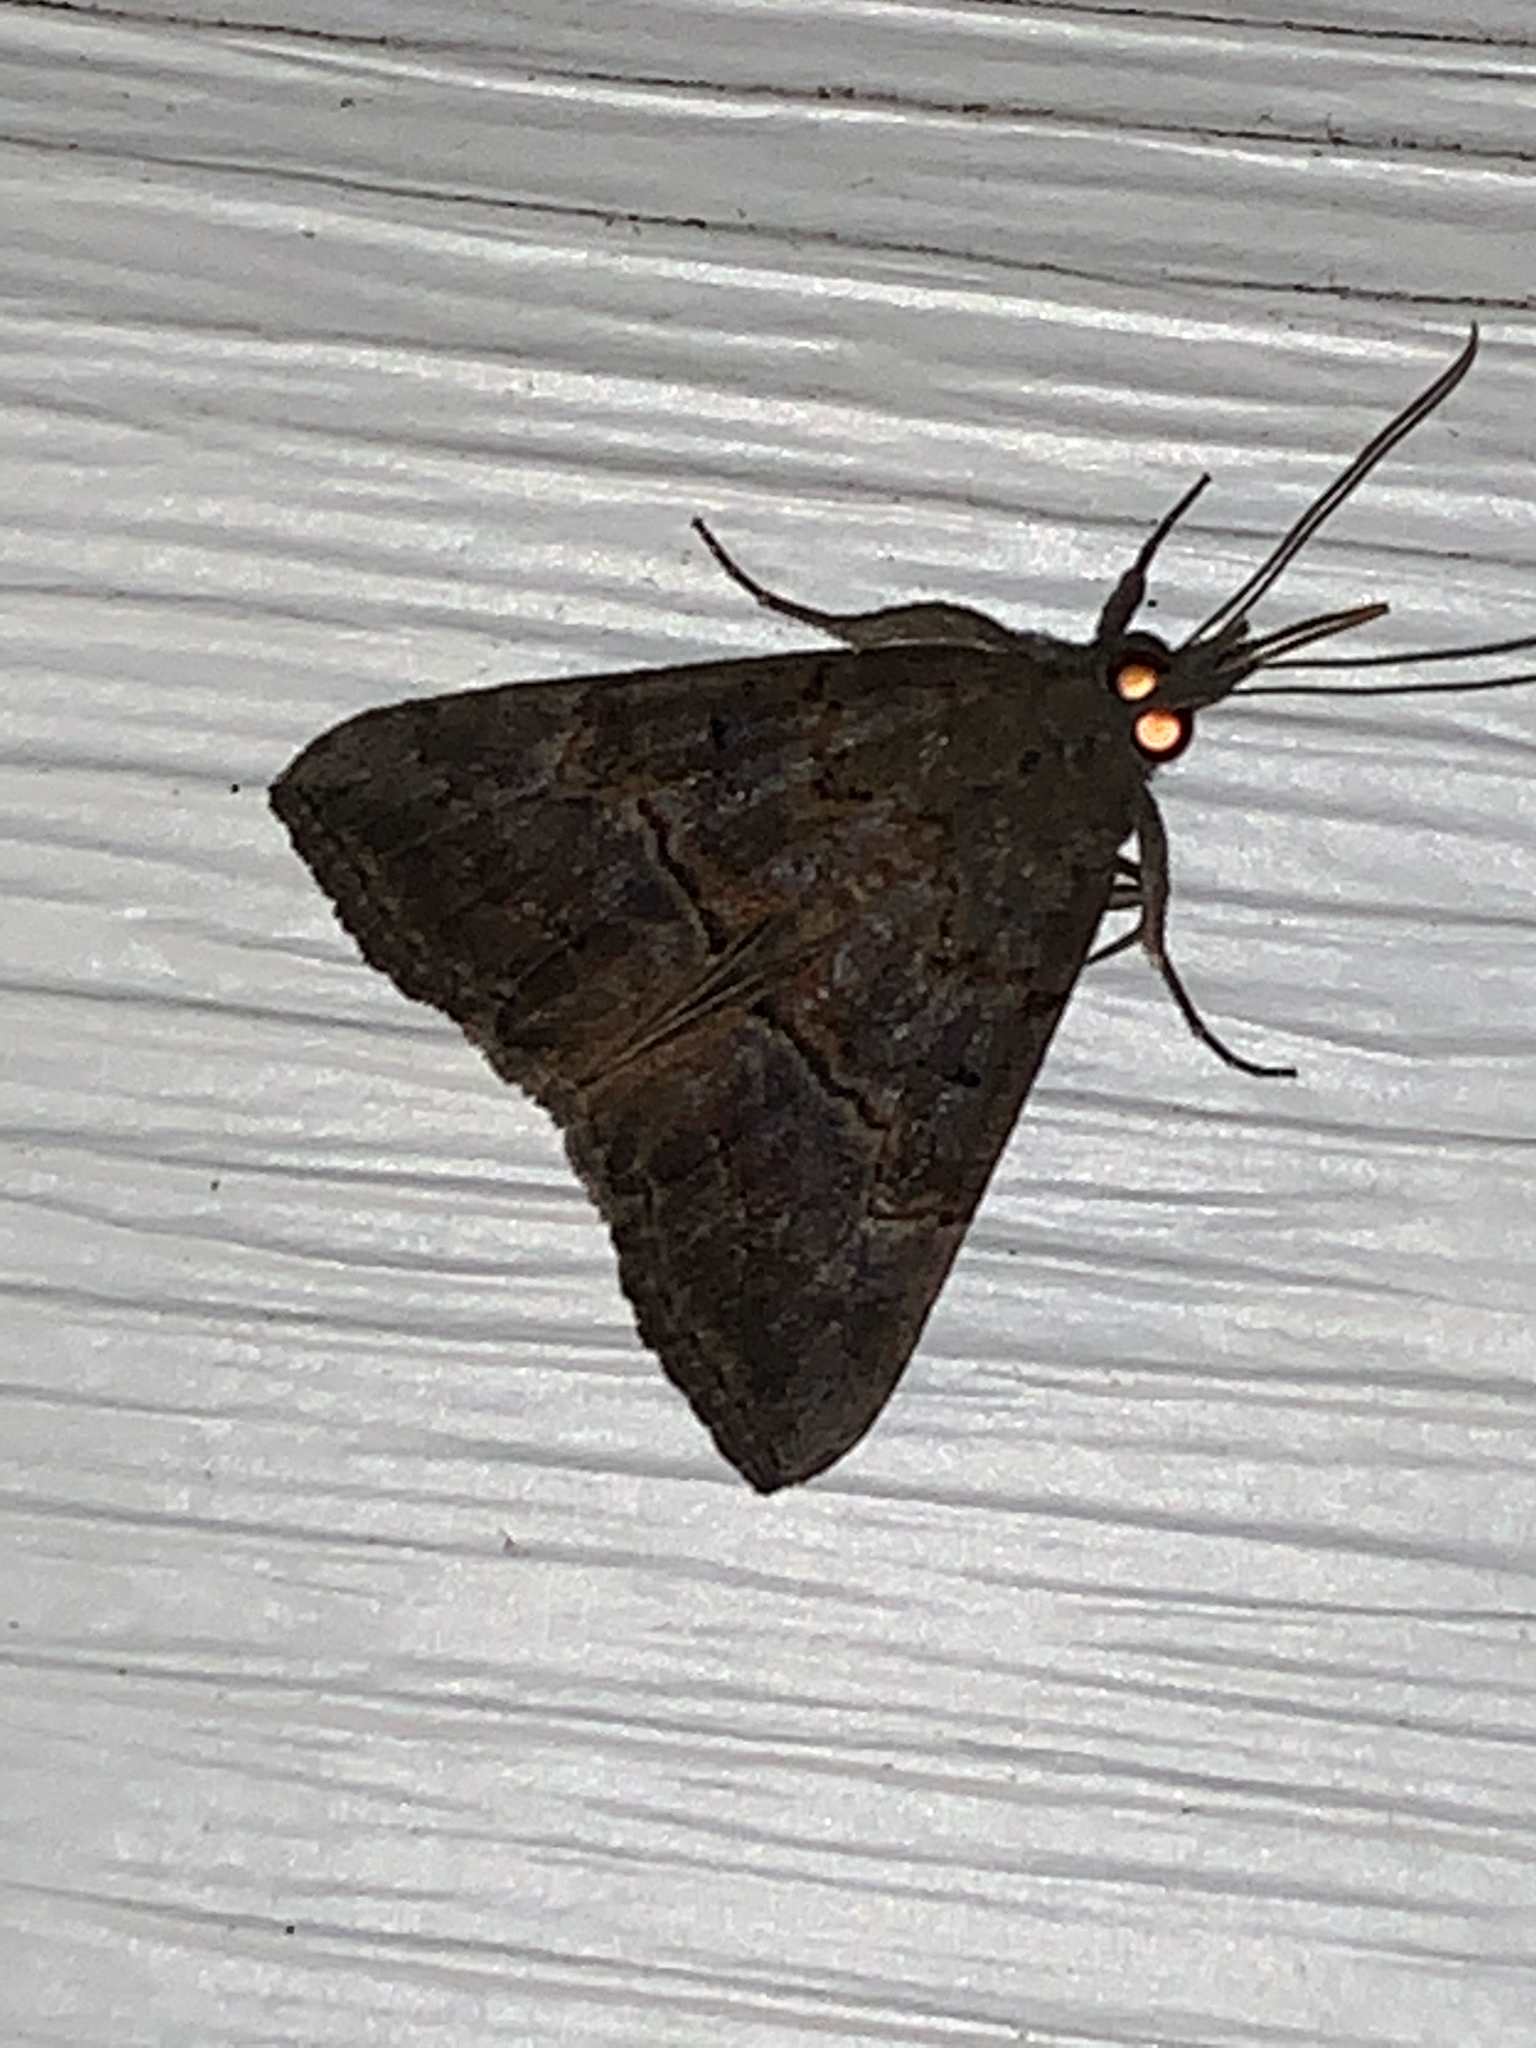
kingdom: Animalia
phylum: Arthropoda
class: Insecta
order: Lepidoptera
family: Erebidae
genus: Hypena
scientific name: Hypena scabra
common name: Green cloverworm
